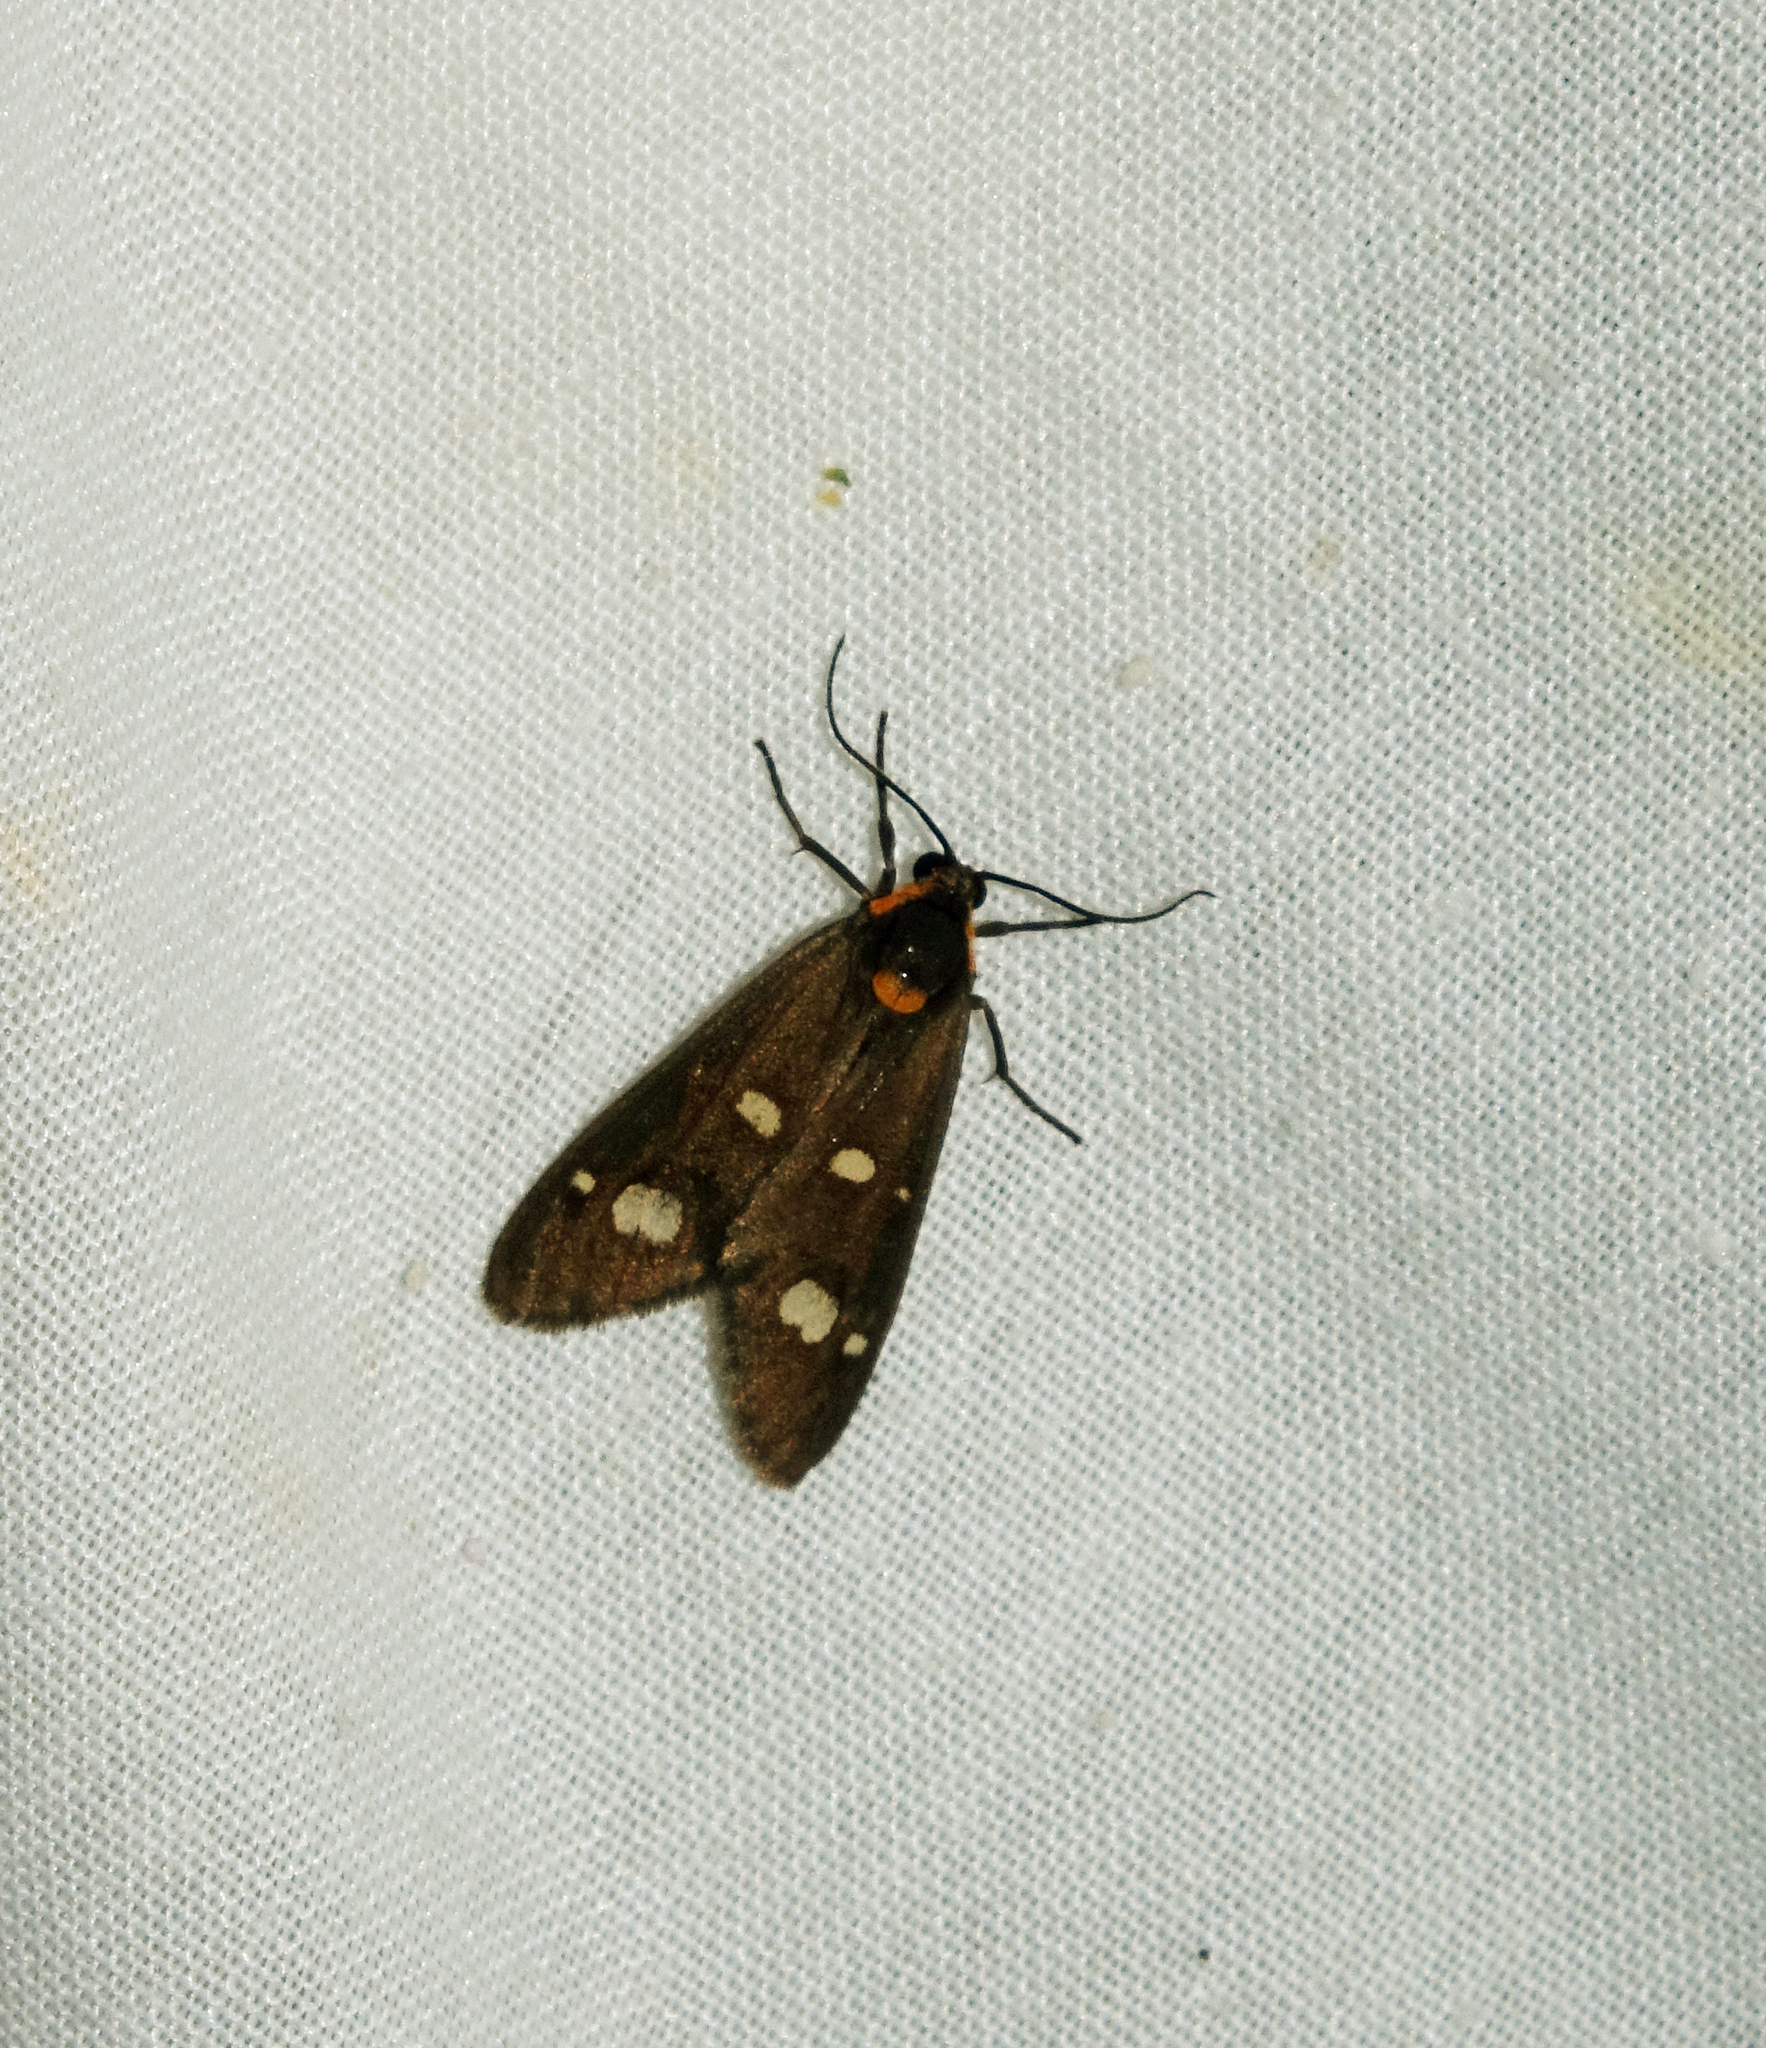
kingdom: Animalia
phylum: Arthropoda
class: Insecta
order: Lepidoptera
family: Erebidae
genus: Dysauxes
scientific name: Dysauxes punctata
